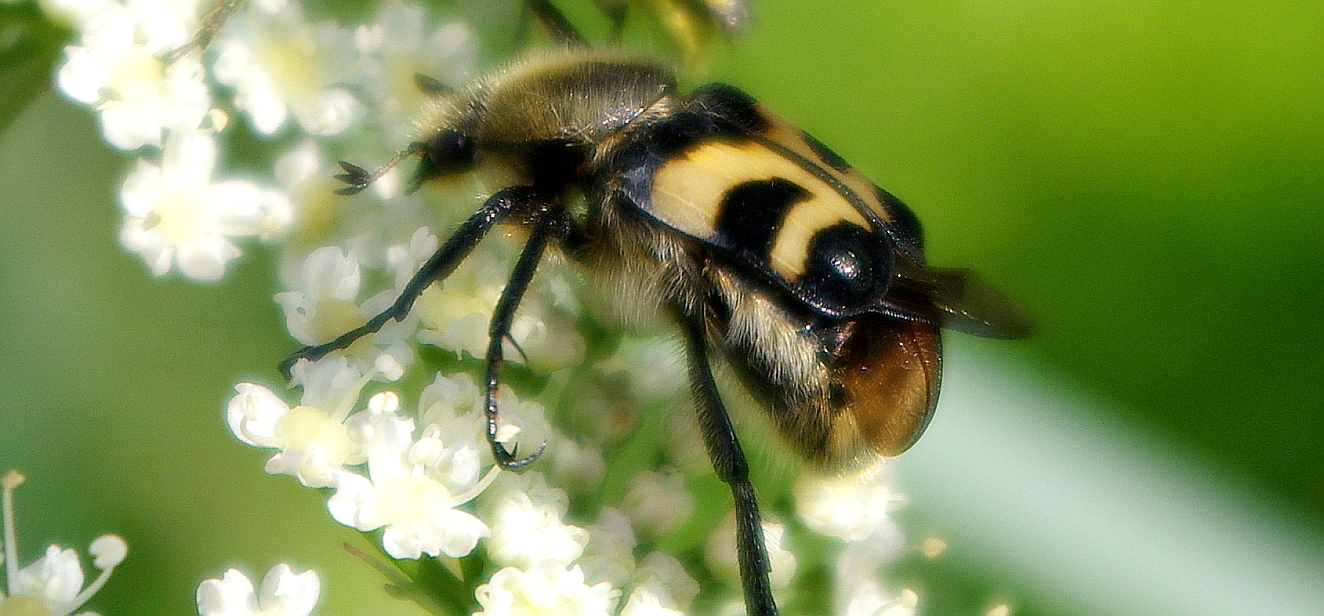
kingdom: Animalia
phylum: Arthropoda
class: Insecta
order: Coleoptera
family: Scarabaeidae
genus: Trichius
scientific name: Trichius fasciatus
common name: Bee beetle
